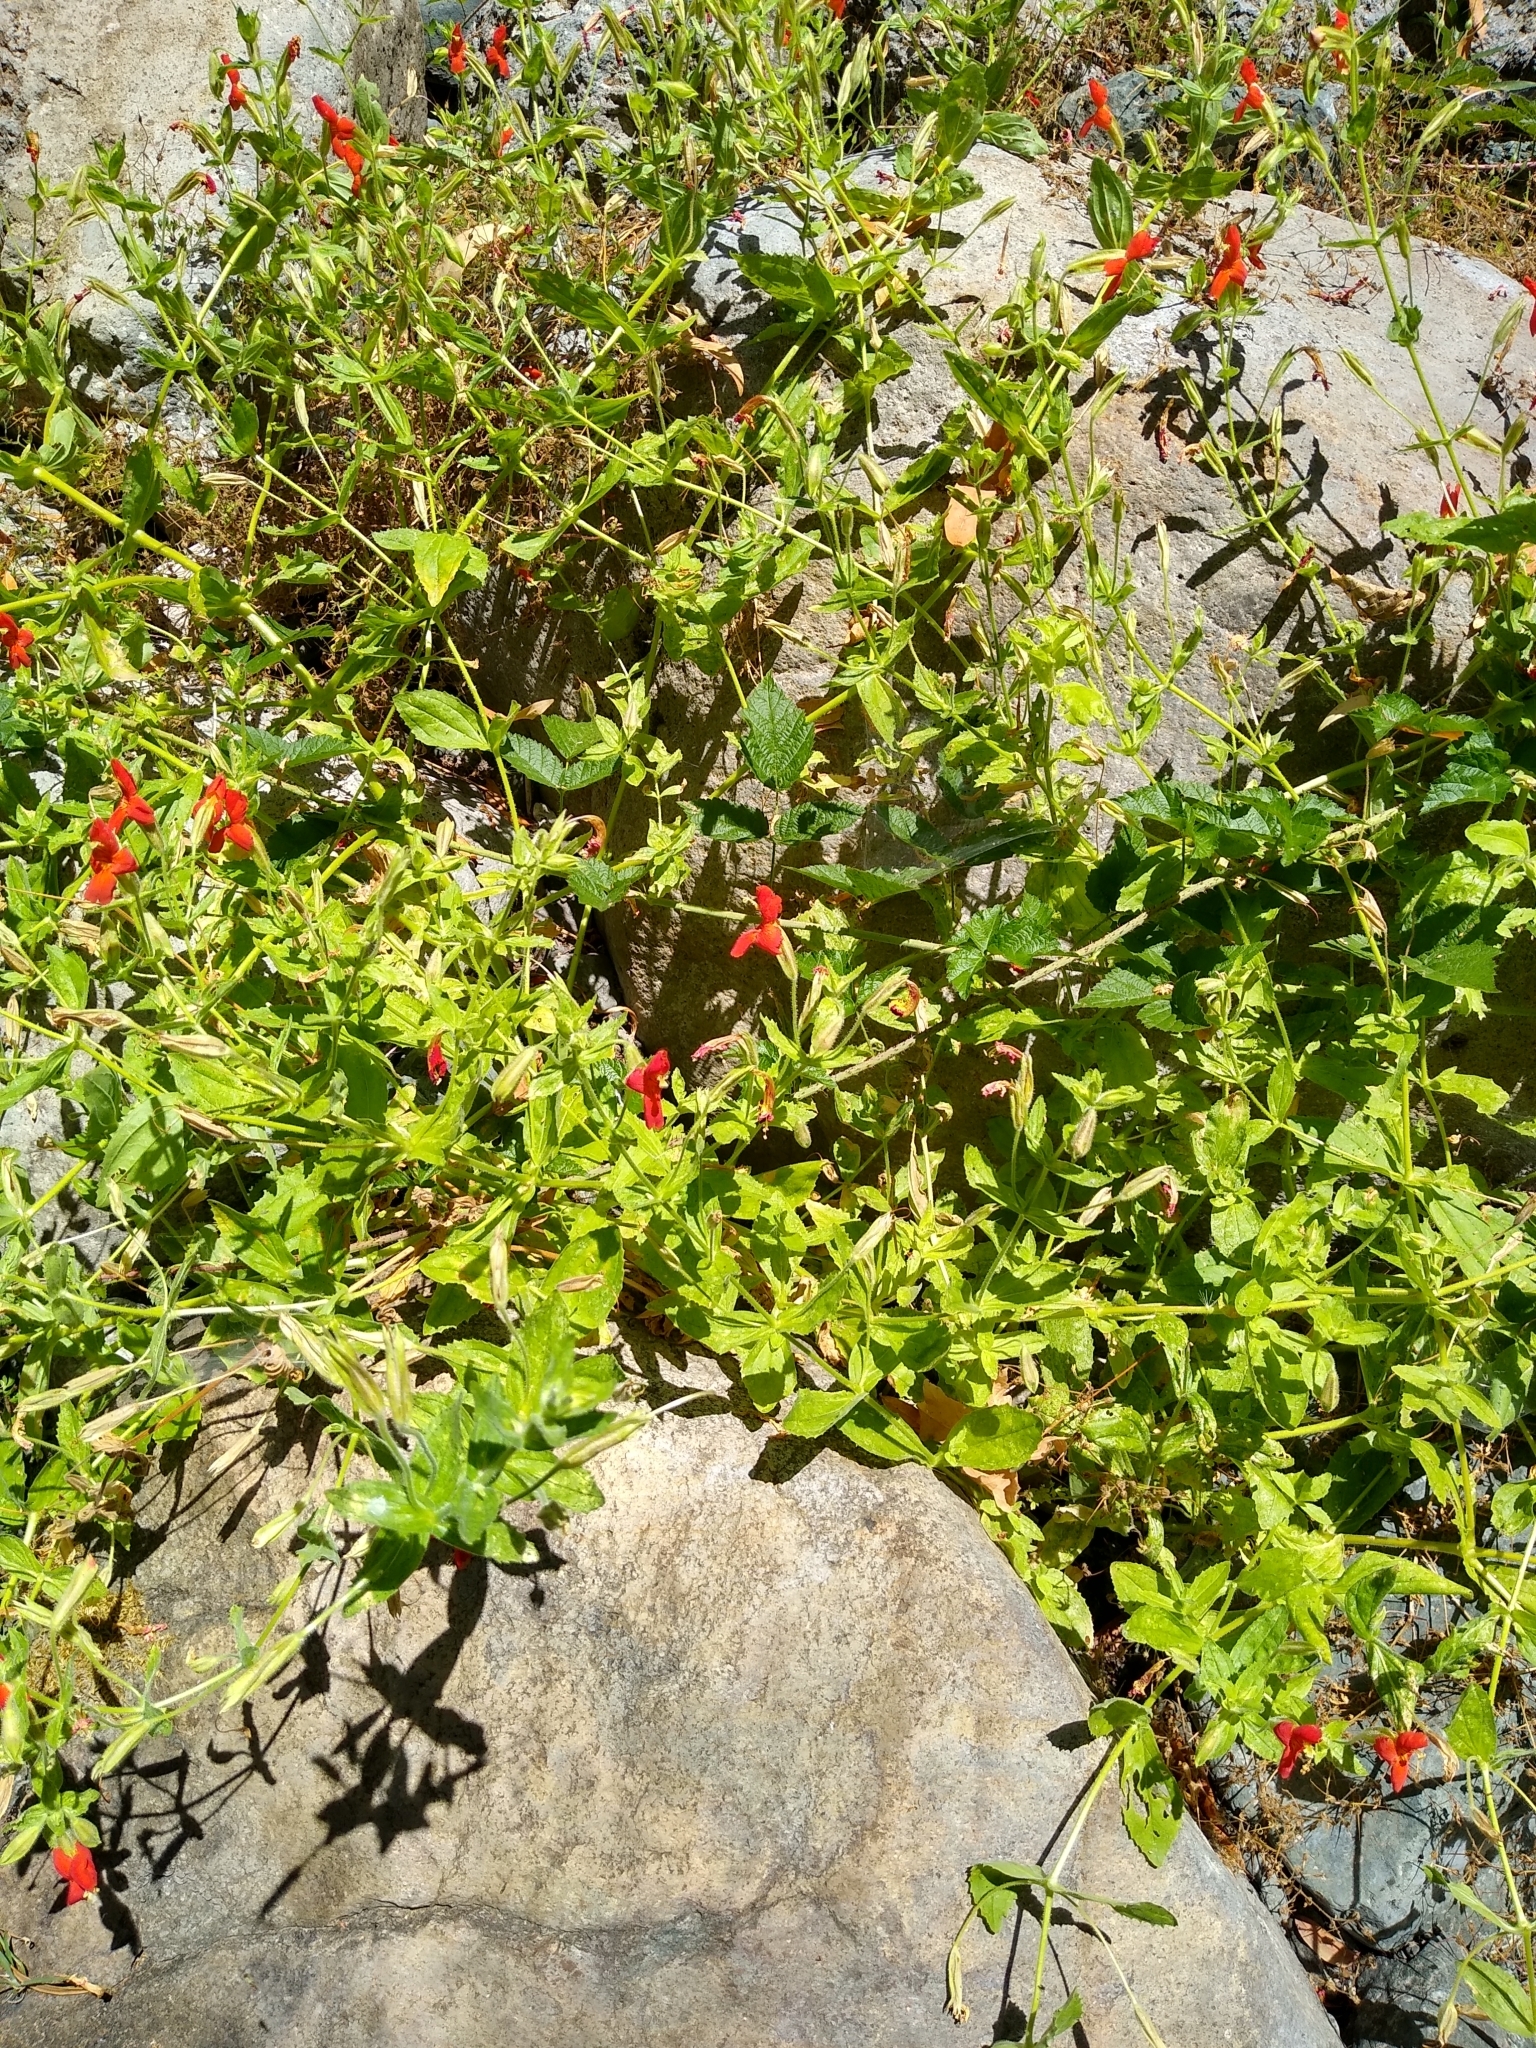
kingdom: Plantae
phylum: Tracheophyta
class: Magnoliopsida
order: Lamiales
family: Phrymaceae
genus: Erythranthe
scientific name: Erythranthe cardinalis
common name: Scarlet monkey-flower
